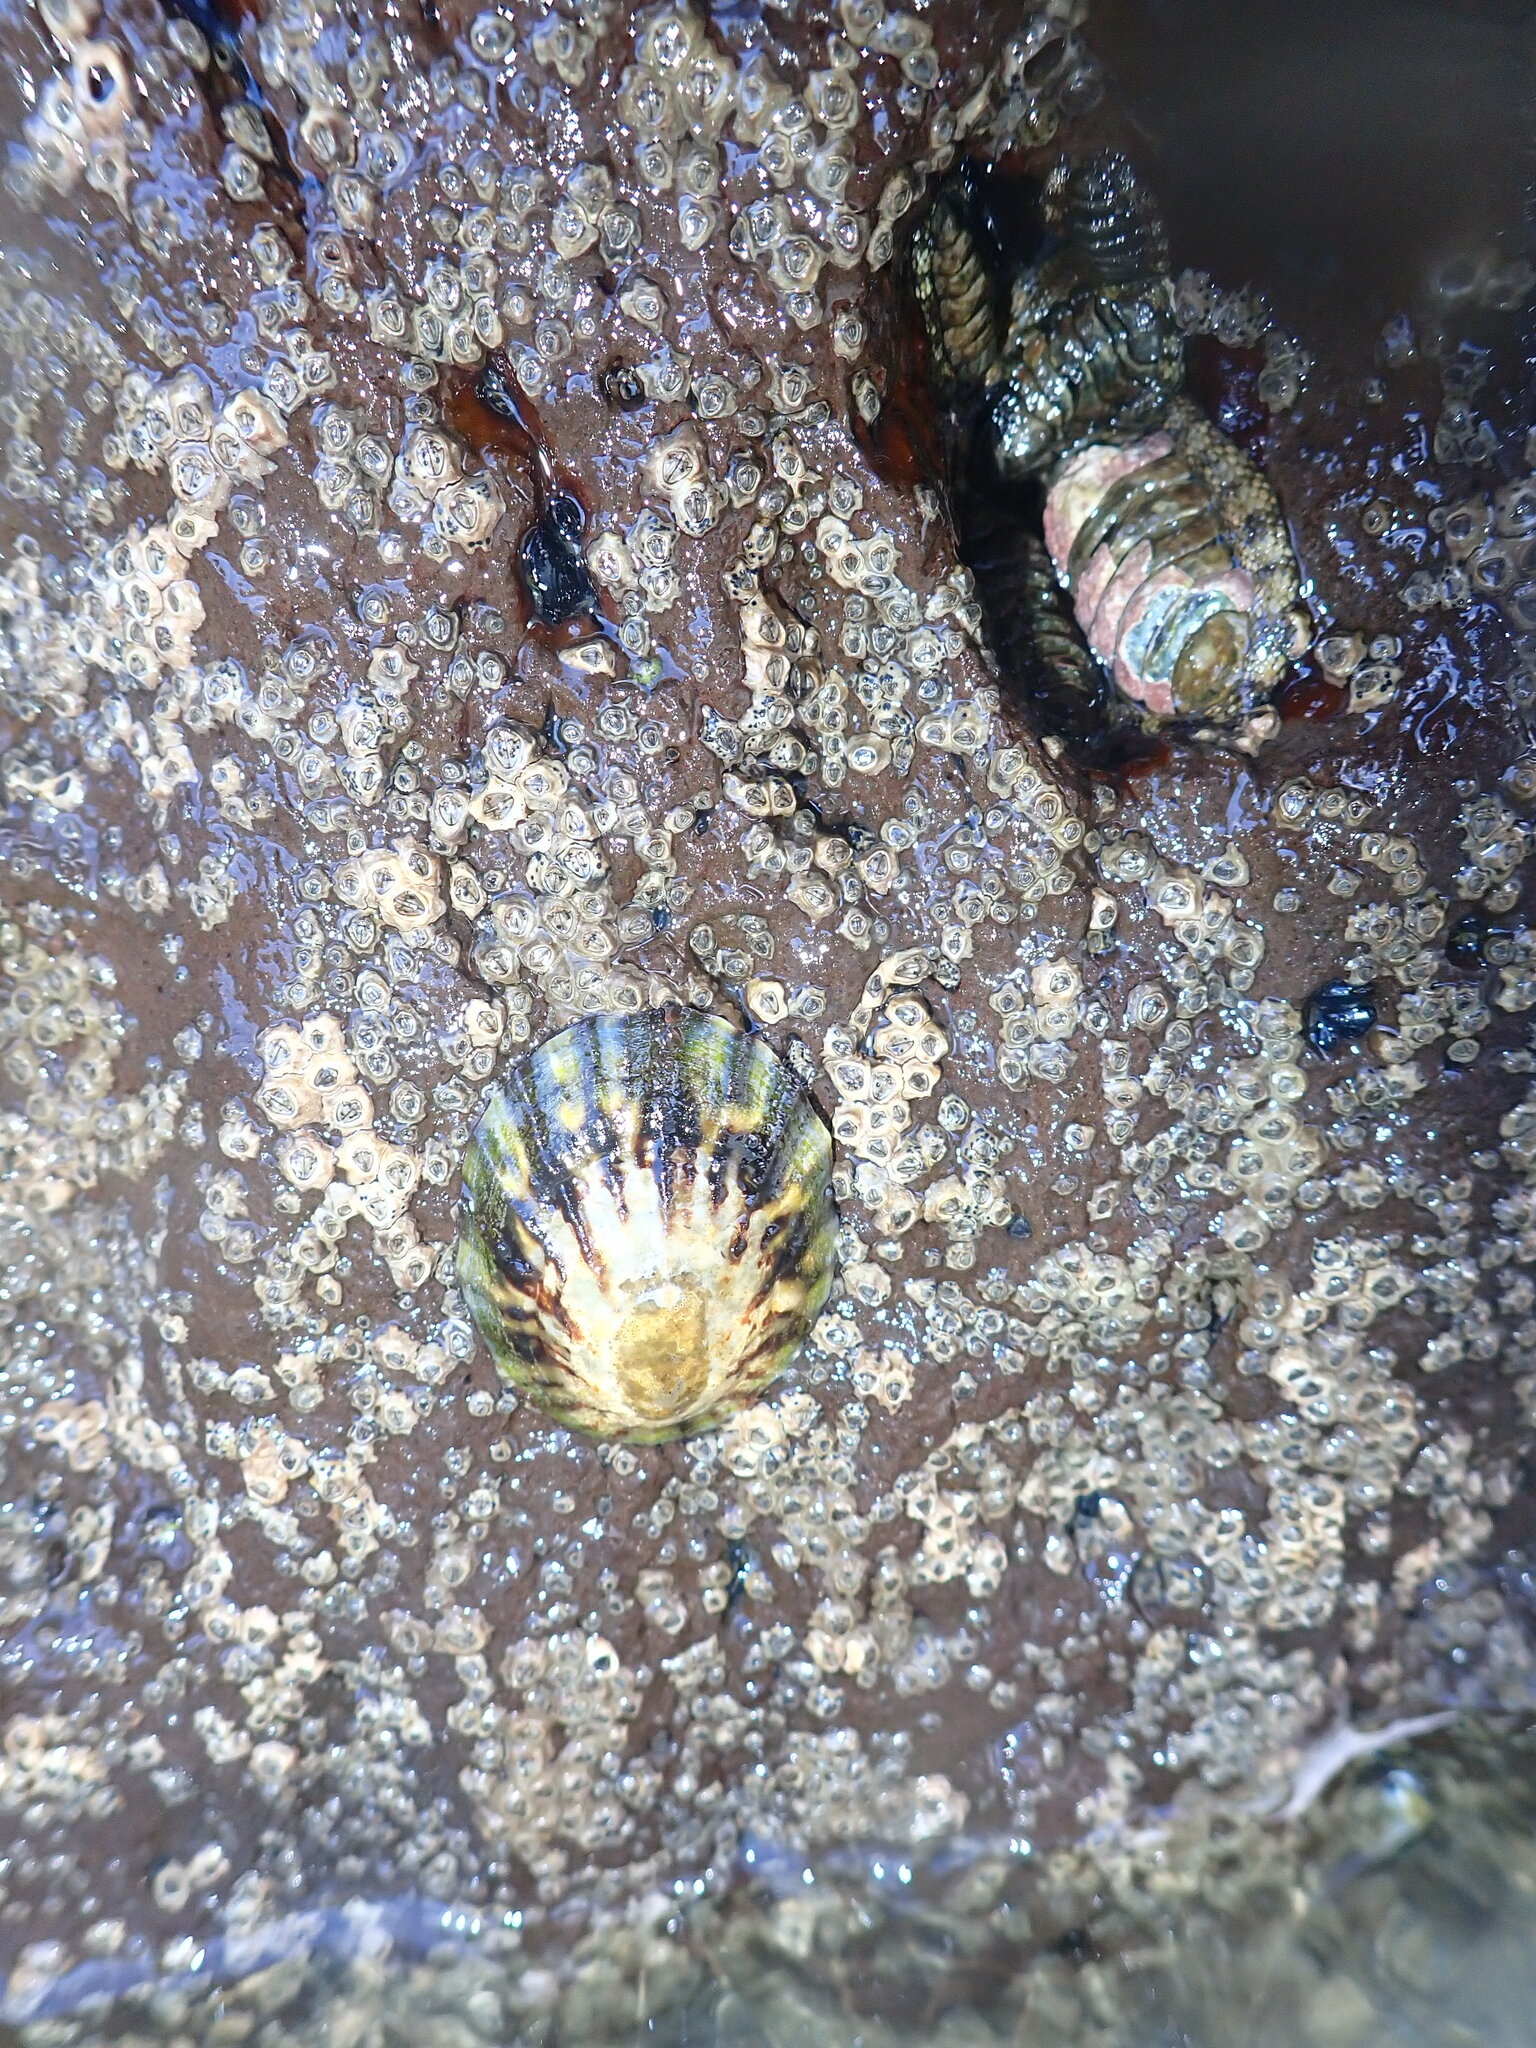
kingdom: Animalia
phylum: Mollusca
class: Gastropoda
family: Nacellidae
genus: Cellana
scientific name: Cellana radians
